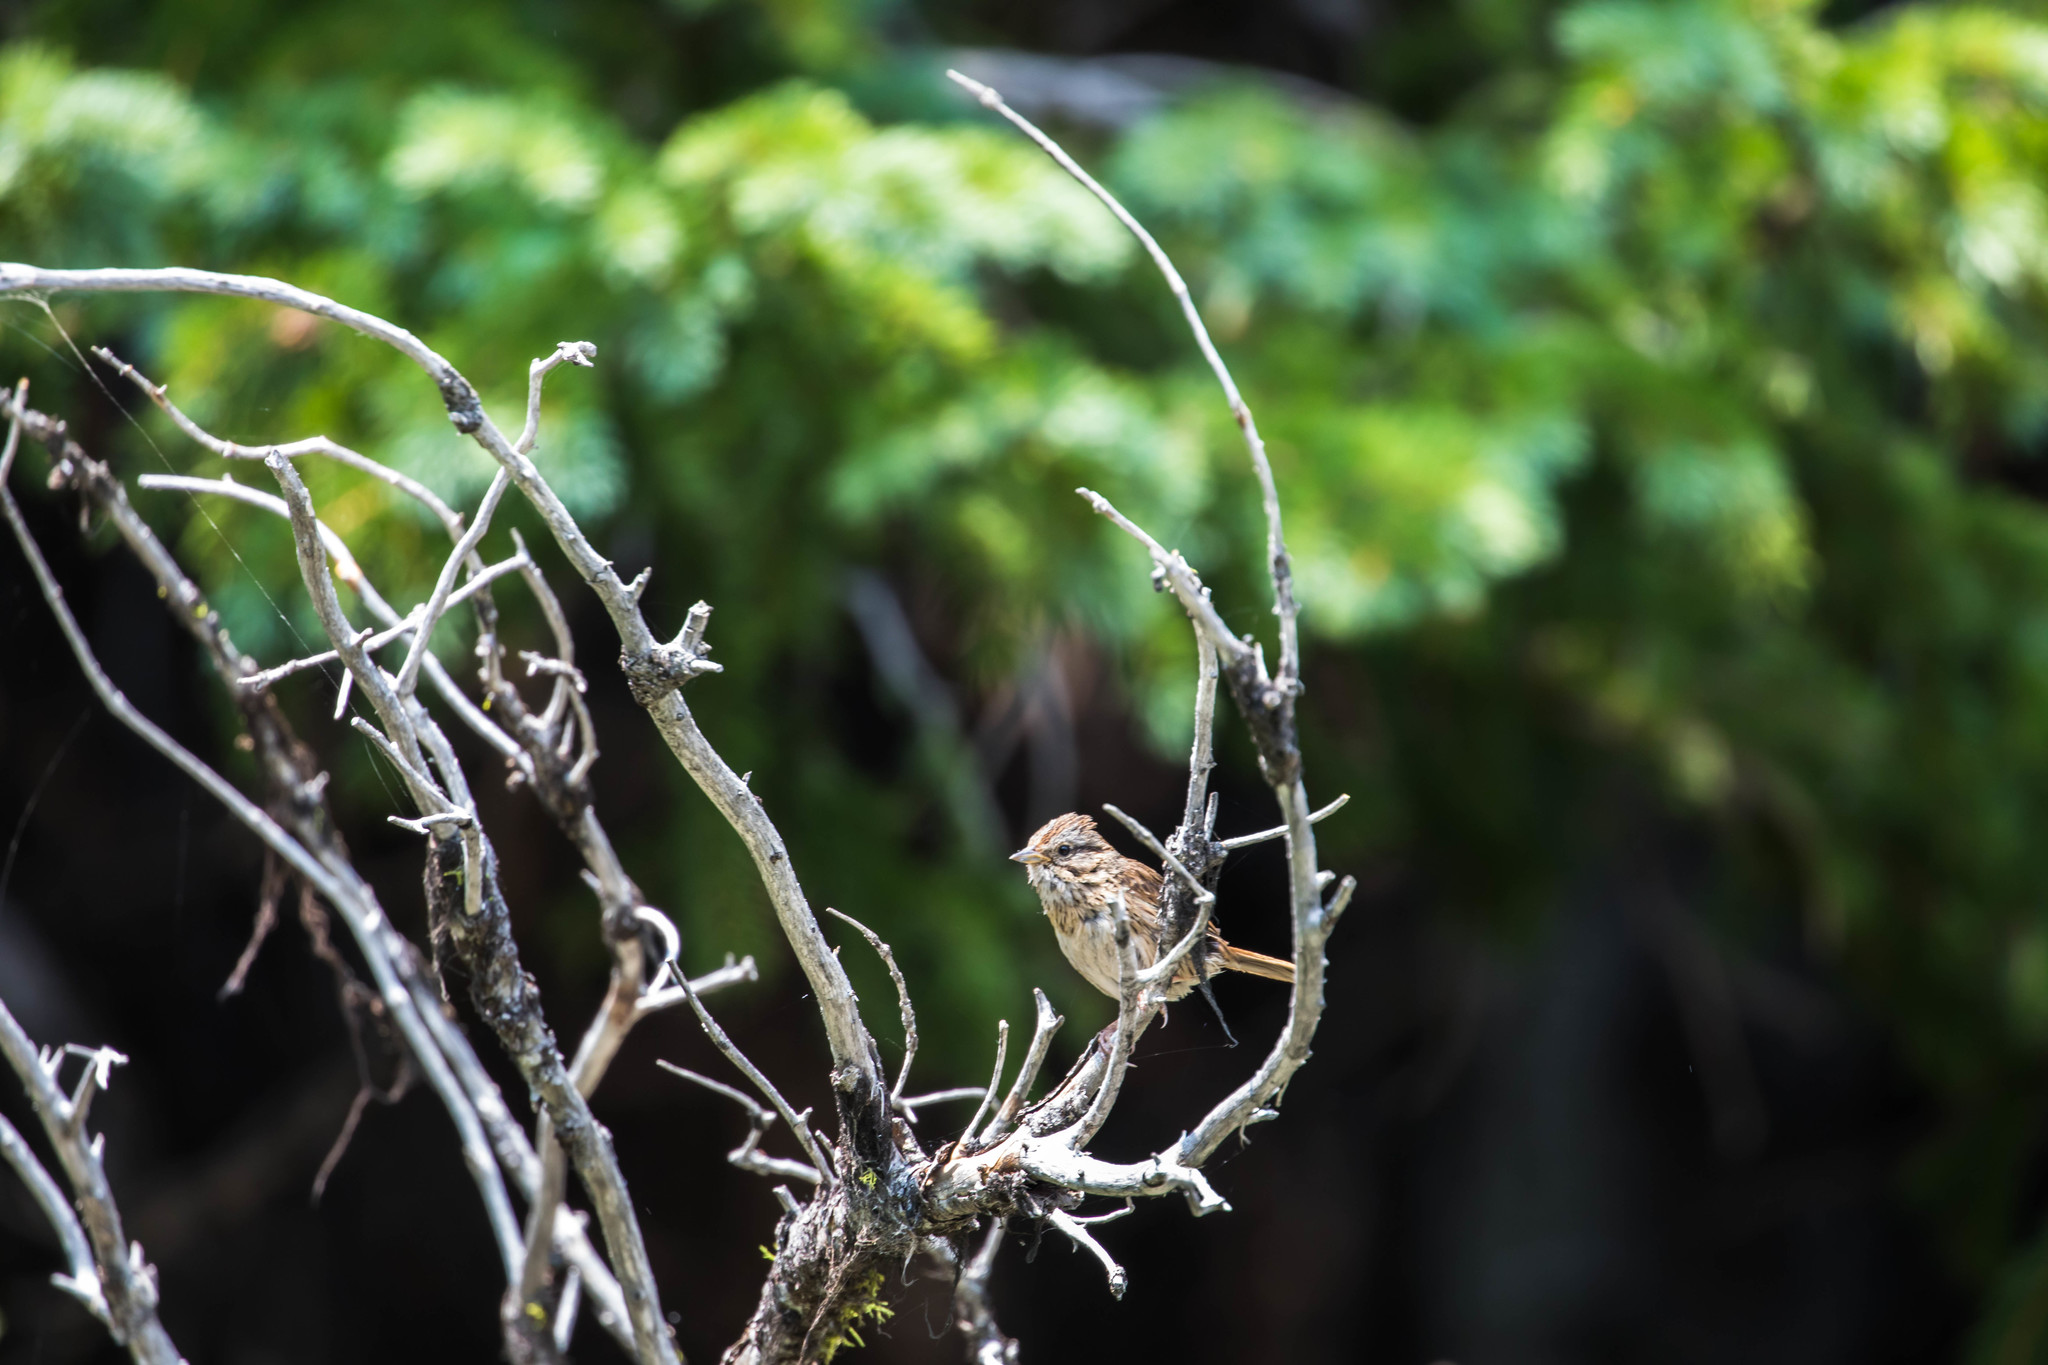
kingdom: Animalia
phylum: Chordata
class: Aves
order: Passeriformes
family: Passerellidae
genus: Melospiza
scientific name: Melospiza lincolnii
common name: Lincoln's sparrow
